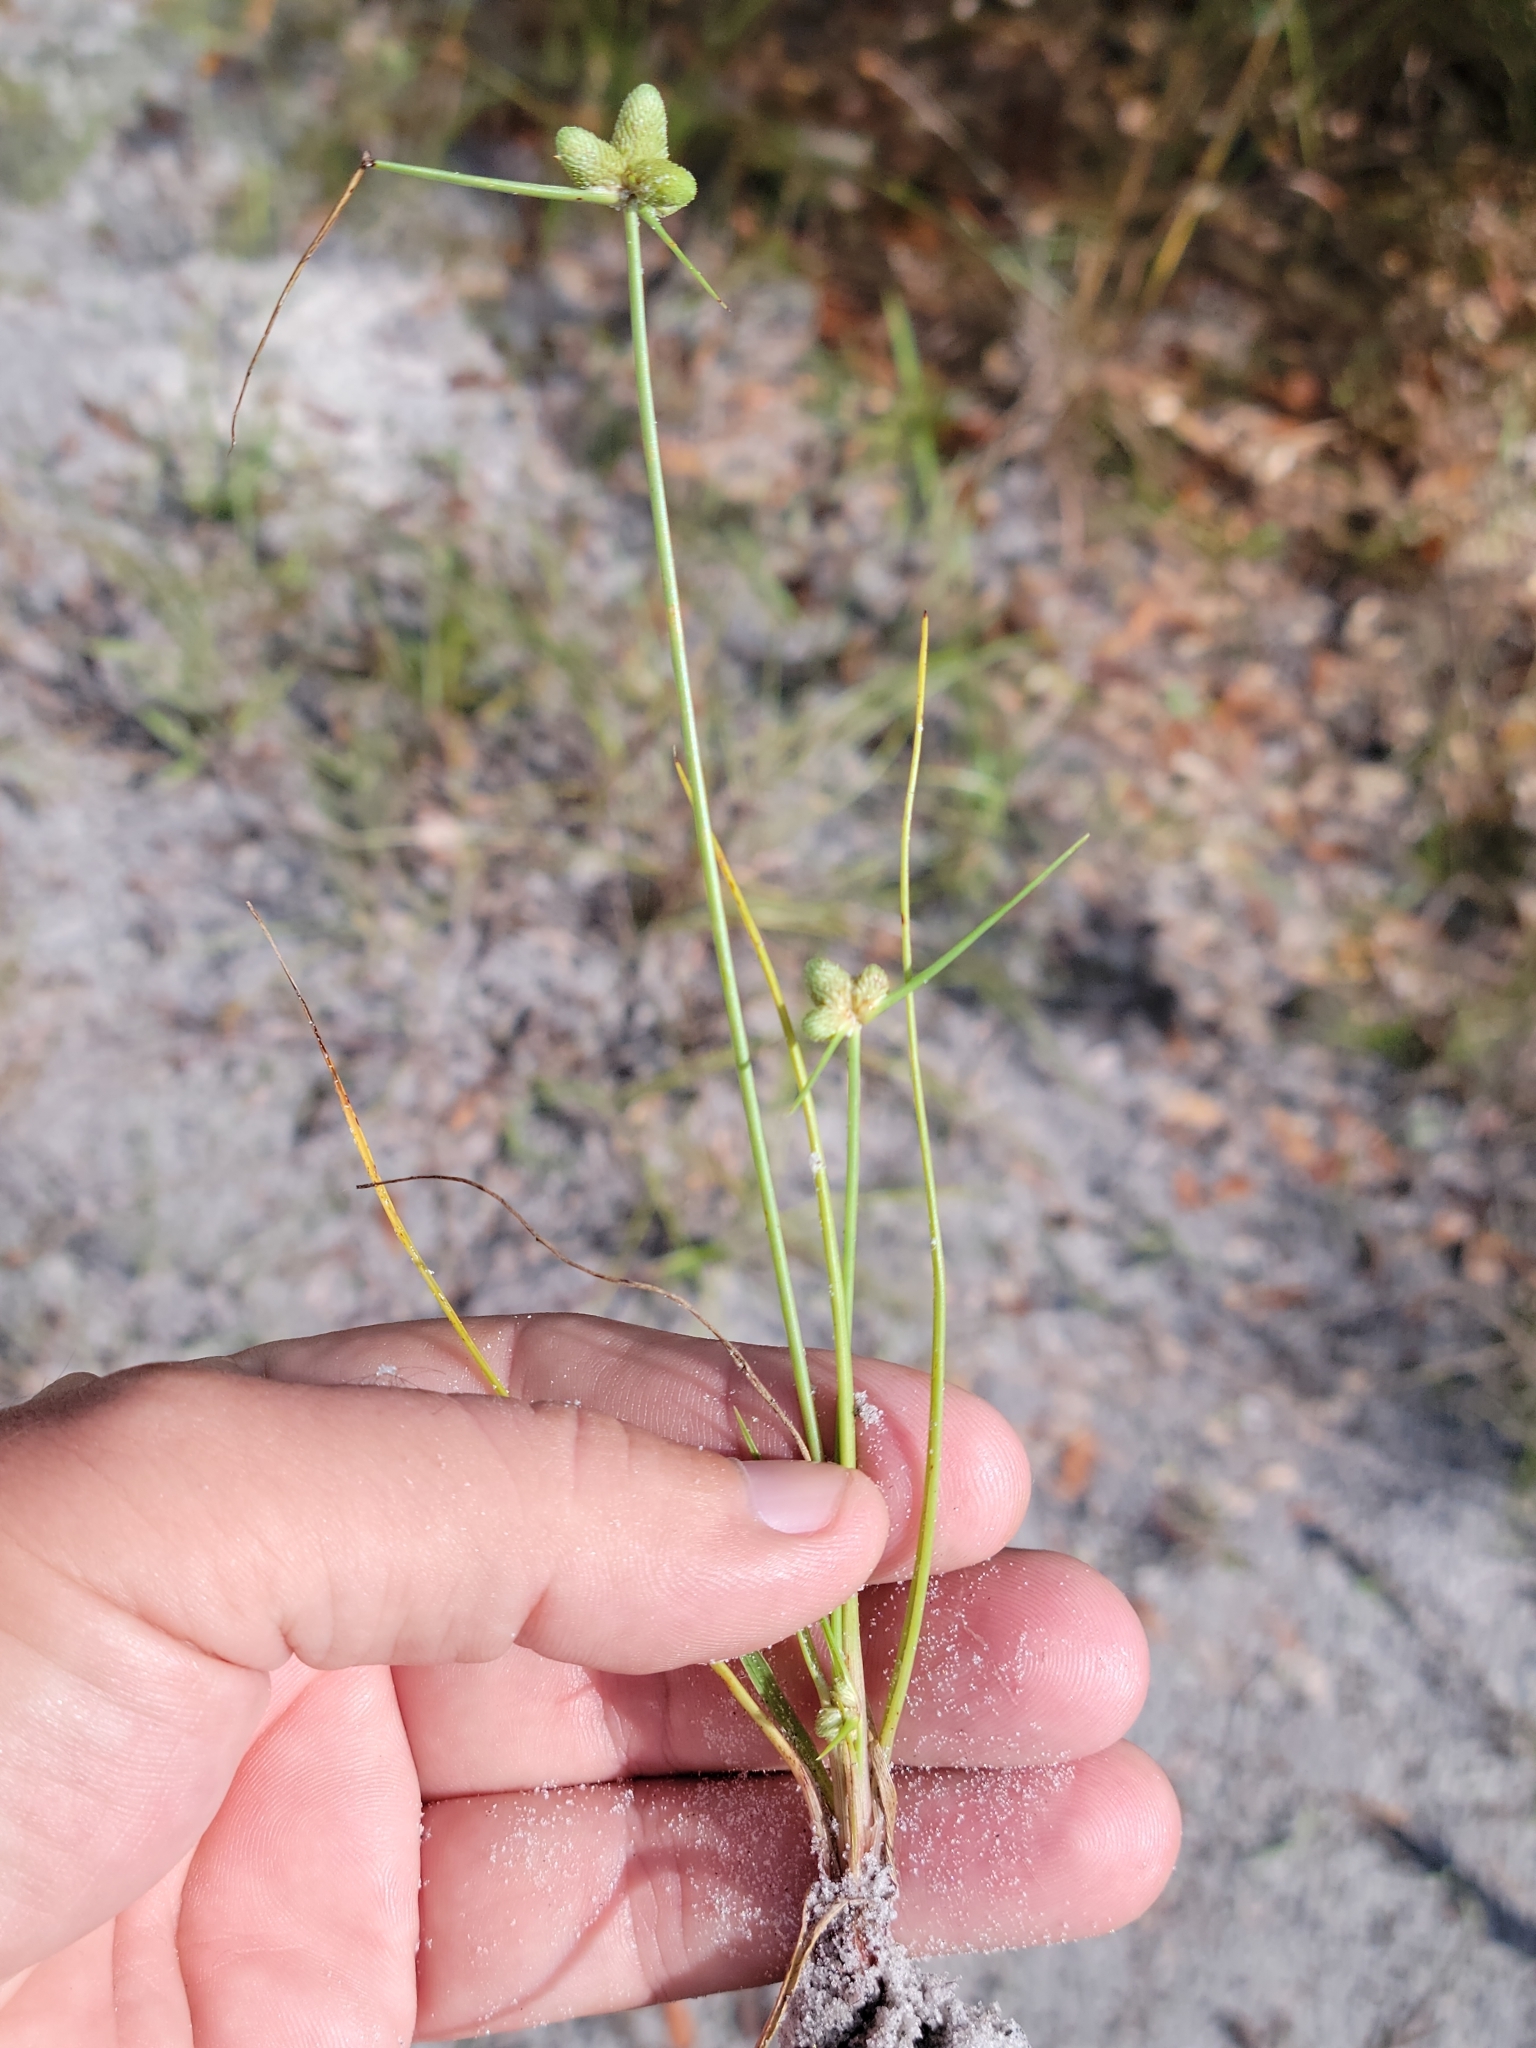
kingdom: Plantae
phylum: Tracheophyta
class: Liliopsida
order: Poales
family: Cyperaceae
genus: Cyperus
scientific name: Cyperus neotropicalis
